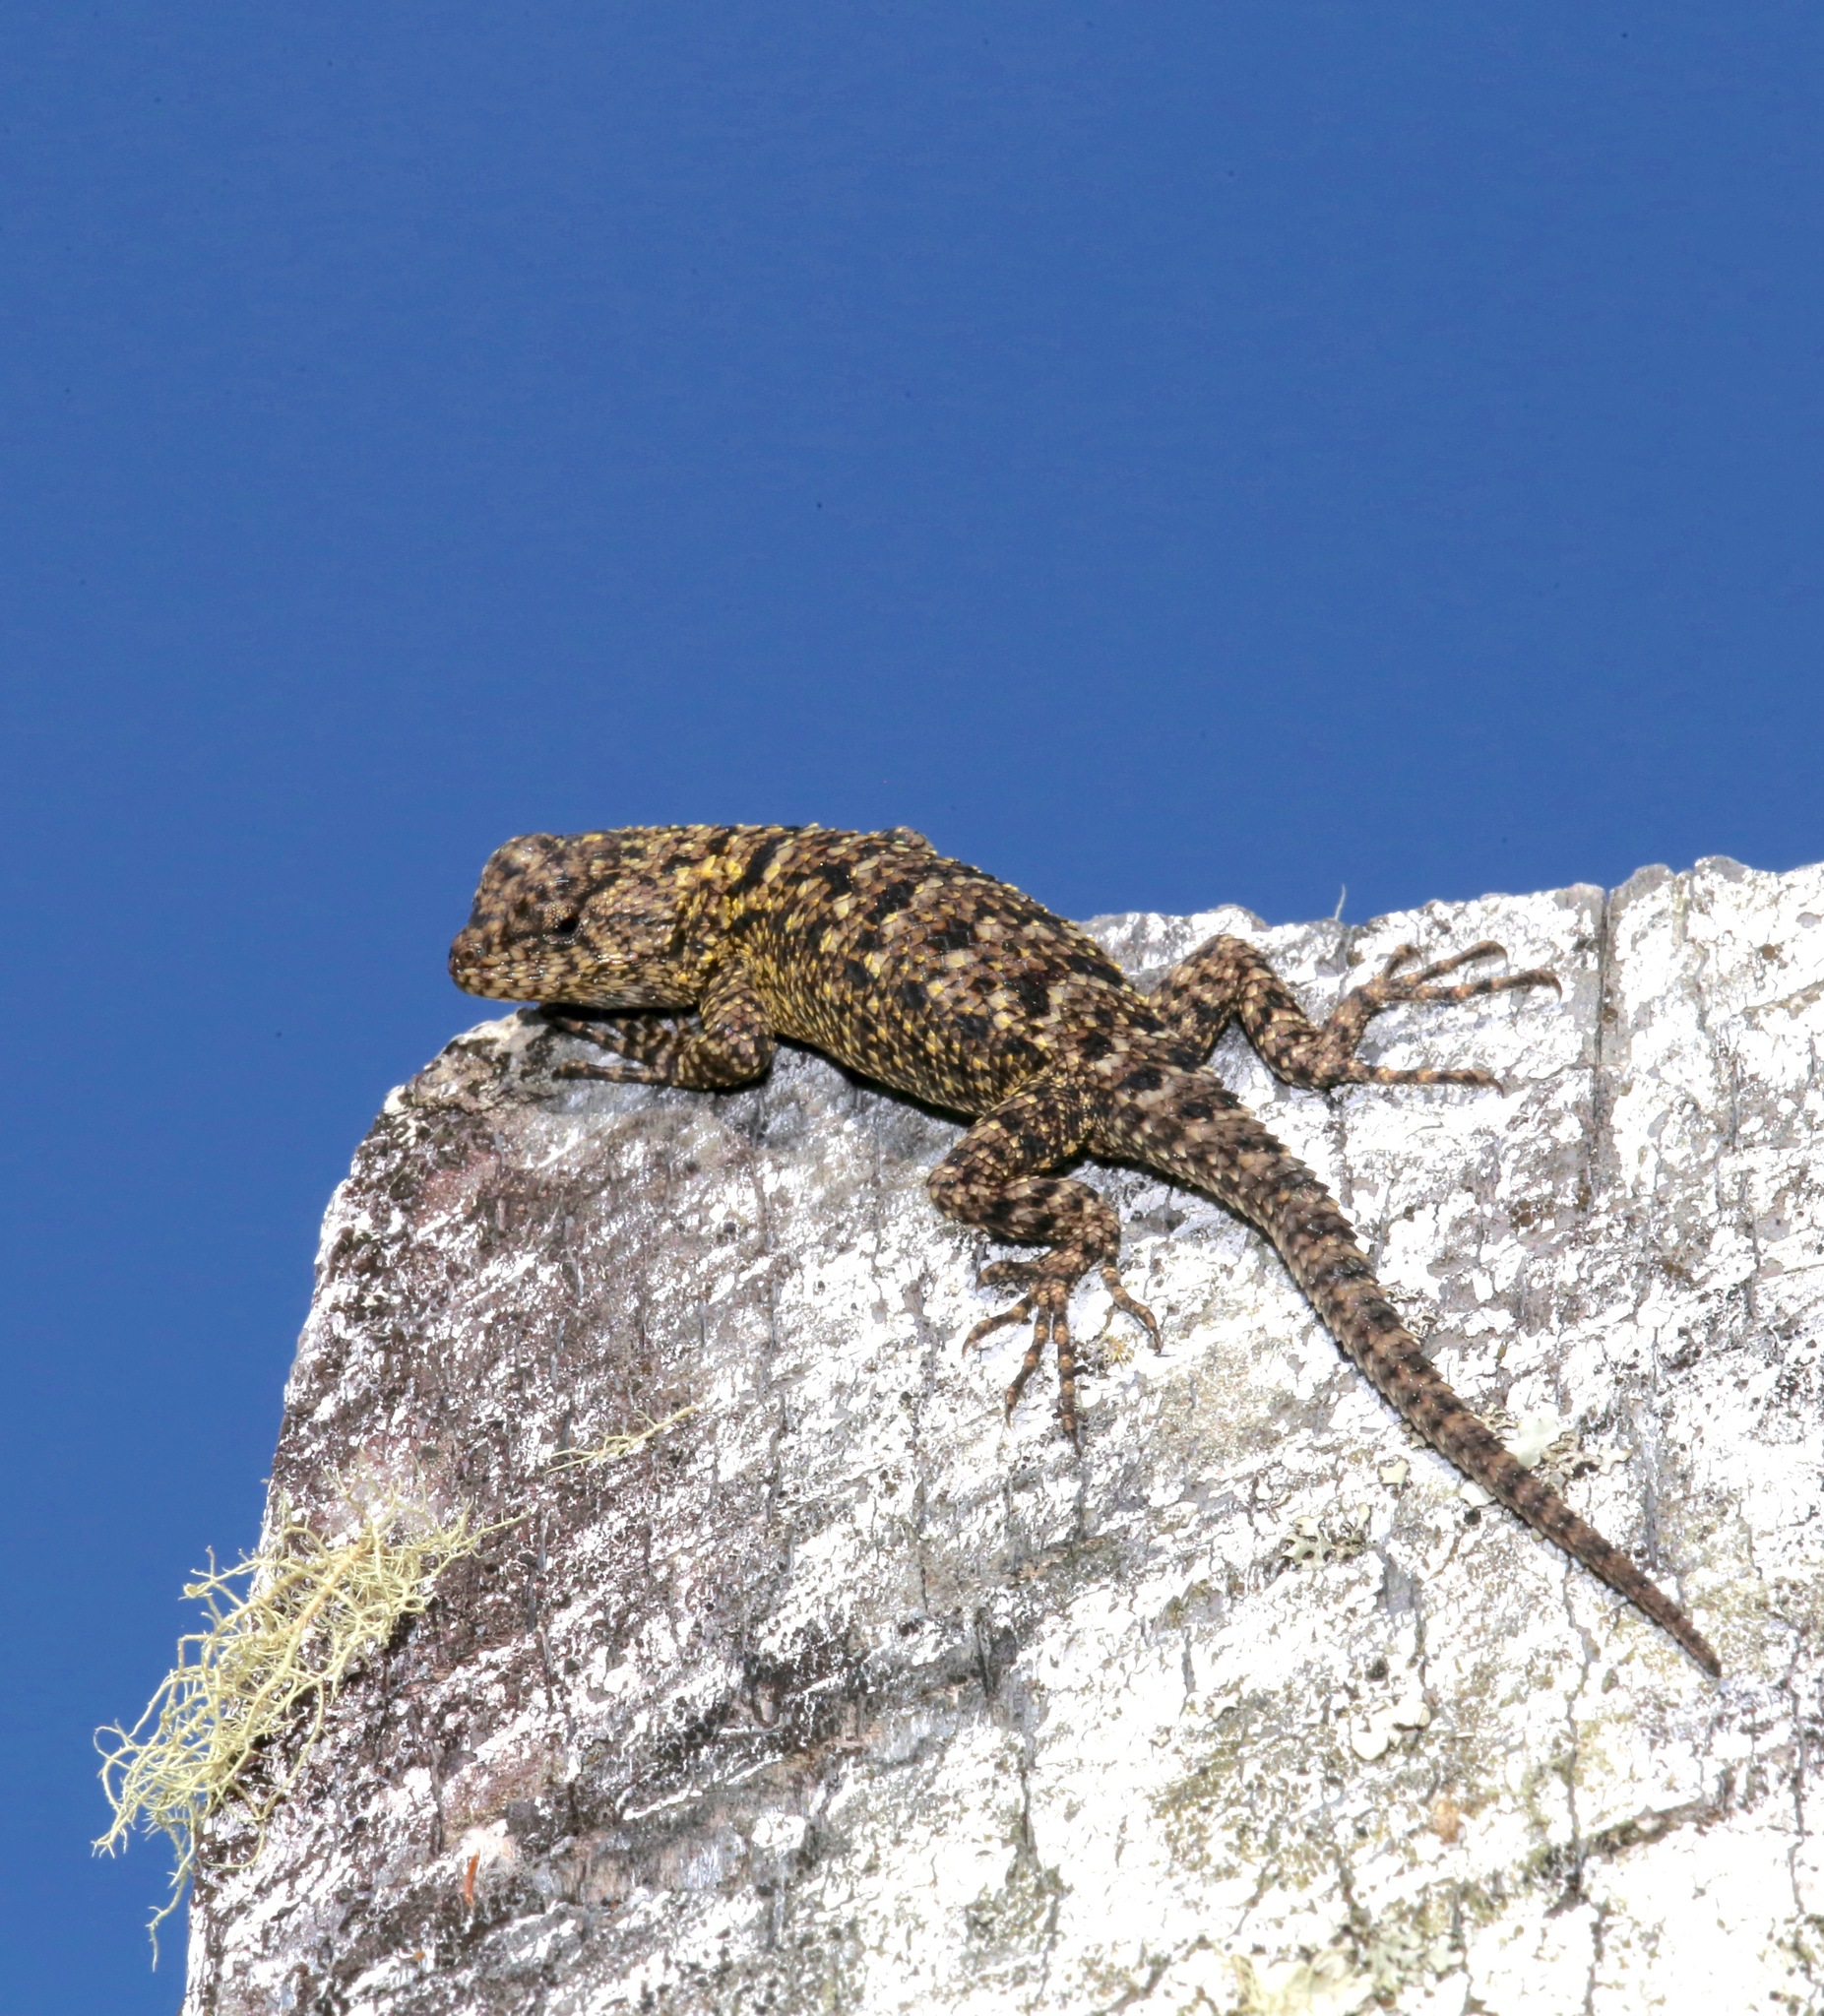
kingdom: Animalia
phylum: Chordata
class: Squamata
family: Phrynosomatidae
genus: Sceloporus
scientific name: Sceloporus malachiticus
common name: Green spiny lizard
